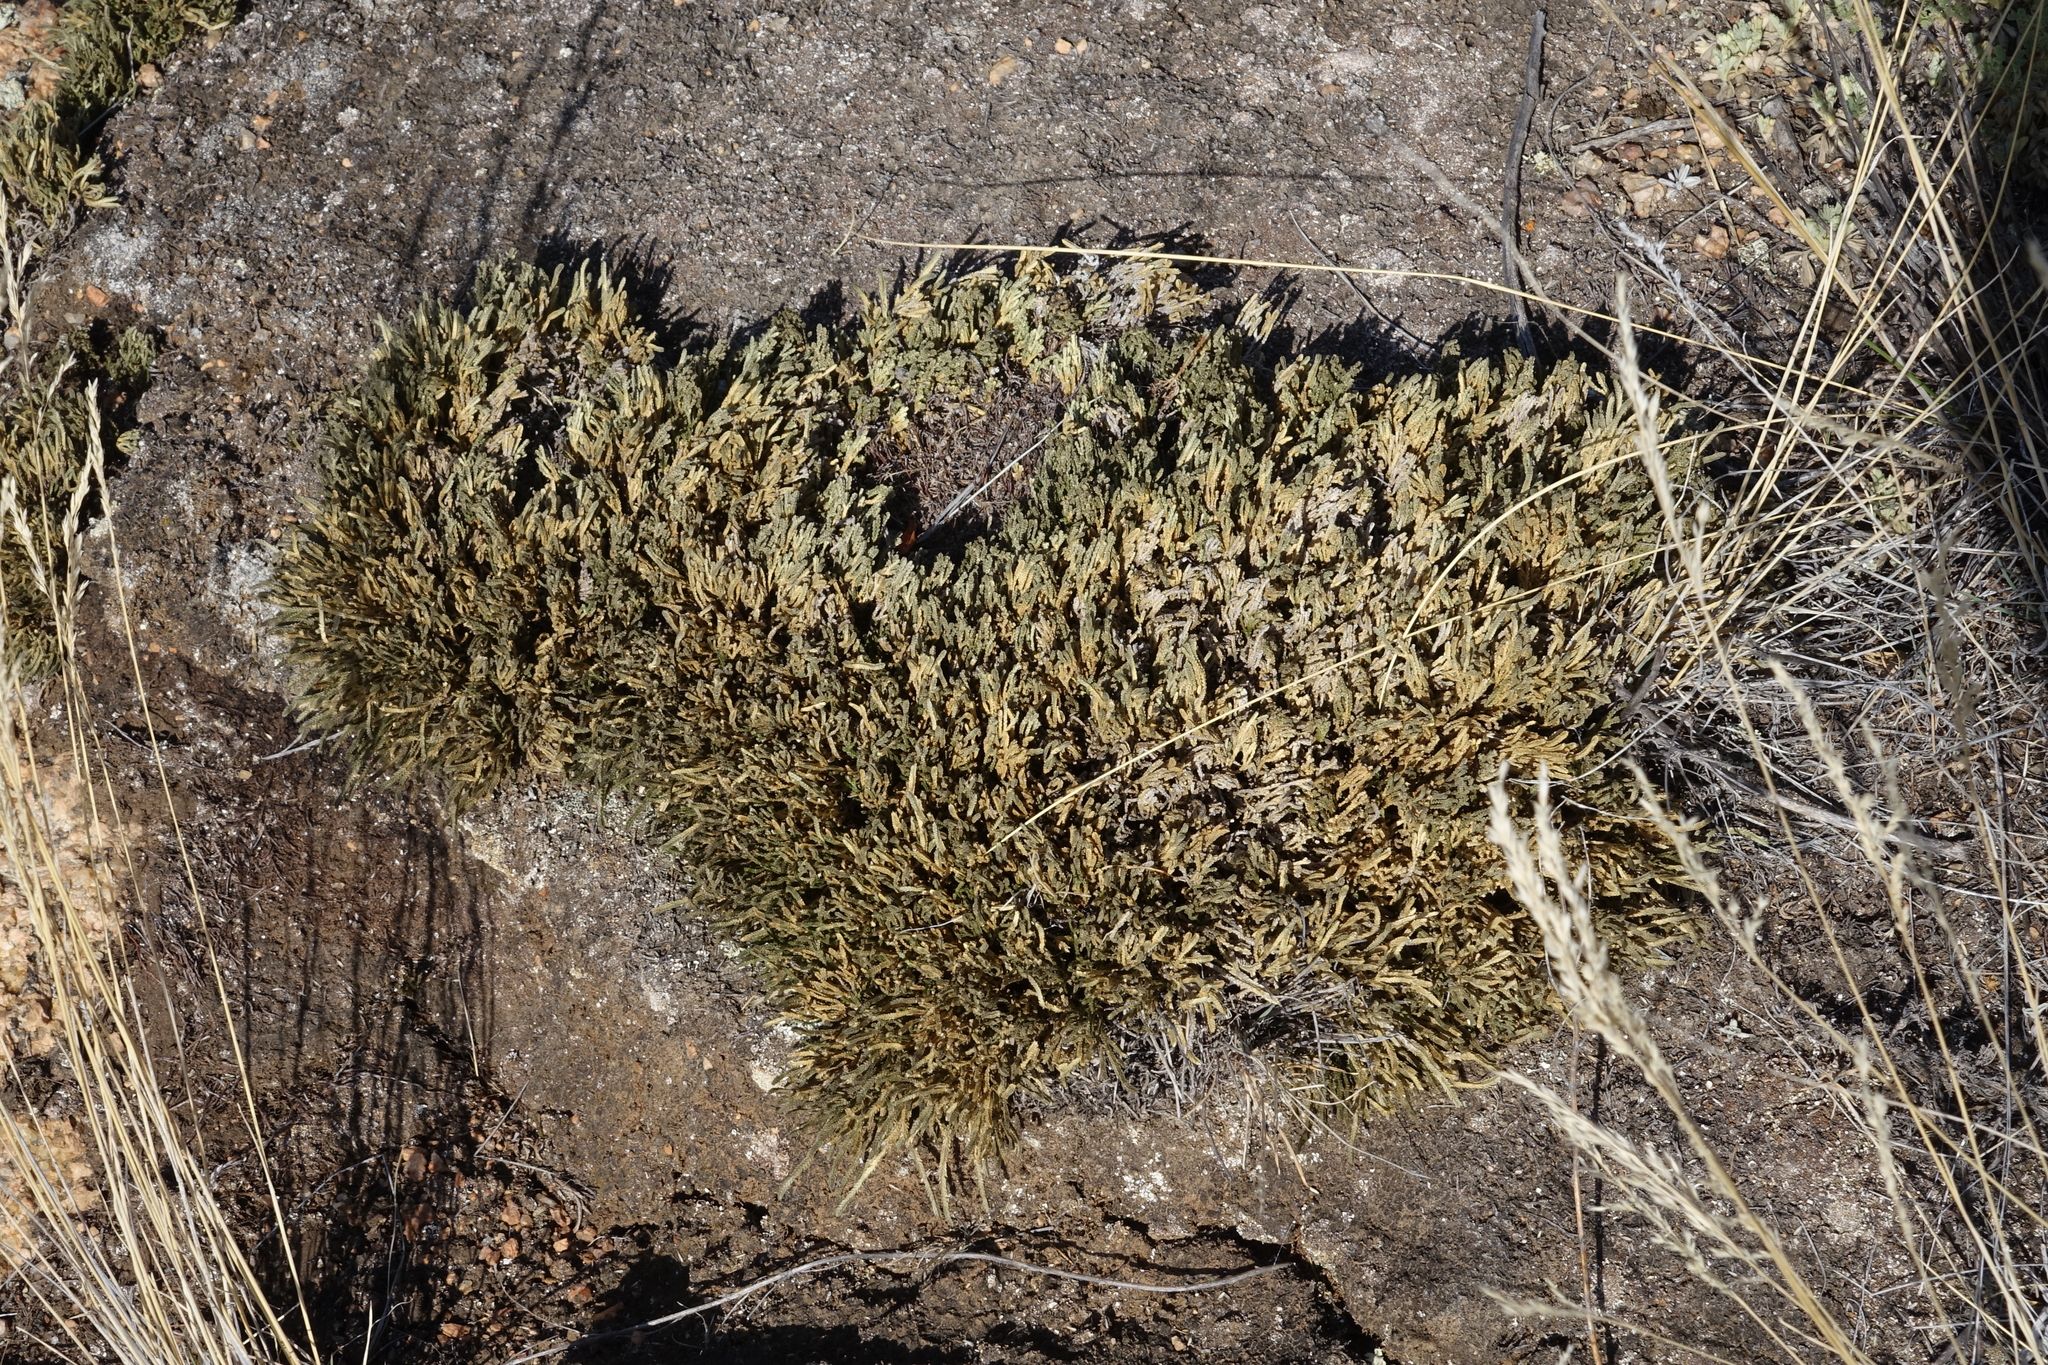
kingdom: Plantae
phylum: Tracheophyta
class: Lycopodiopsida
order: Selaginellales
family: Selaginellaceae
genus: Selaginella
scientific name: Selaginella sanguinolenta
